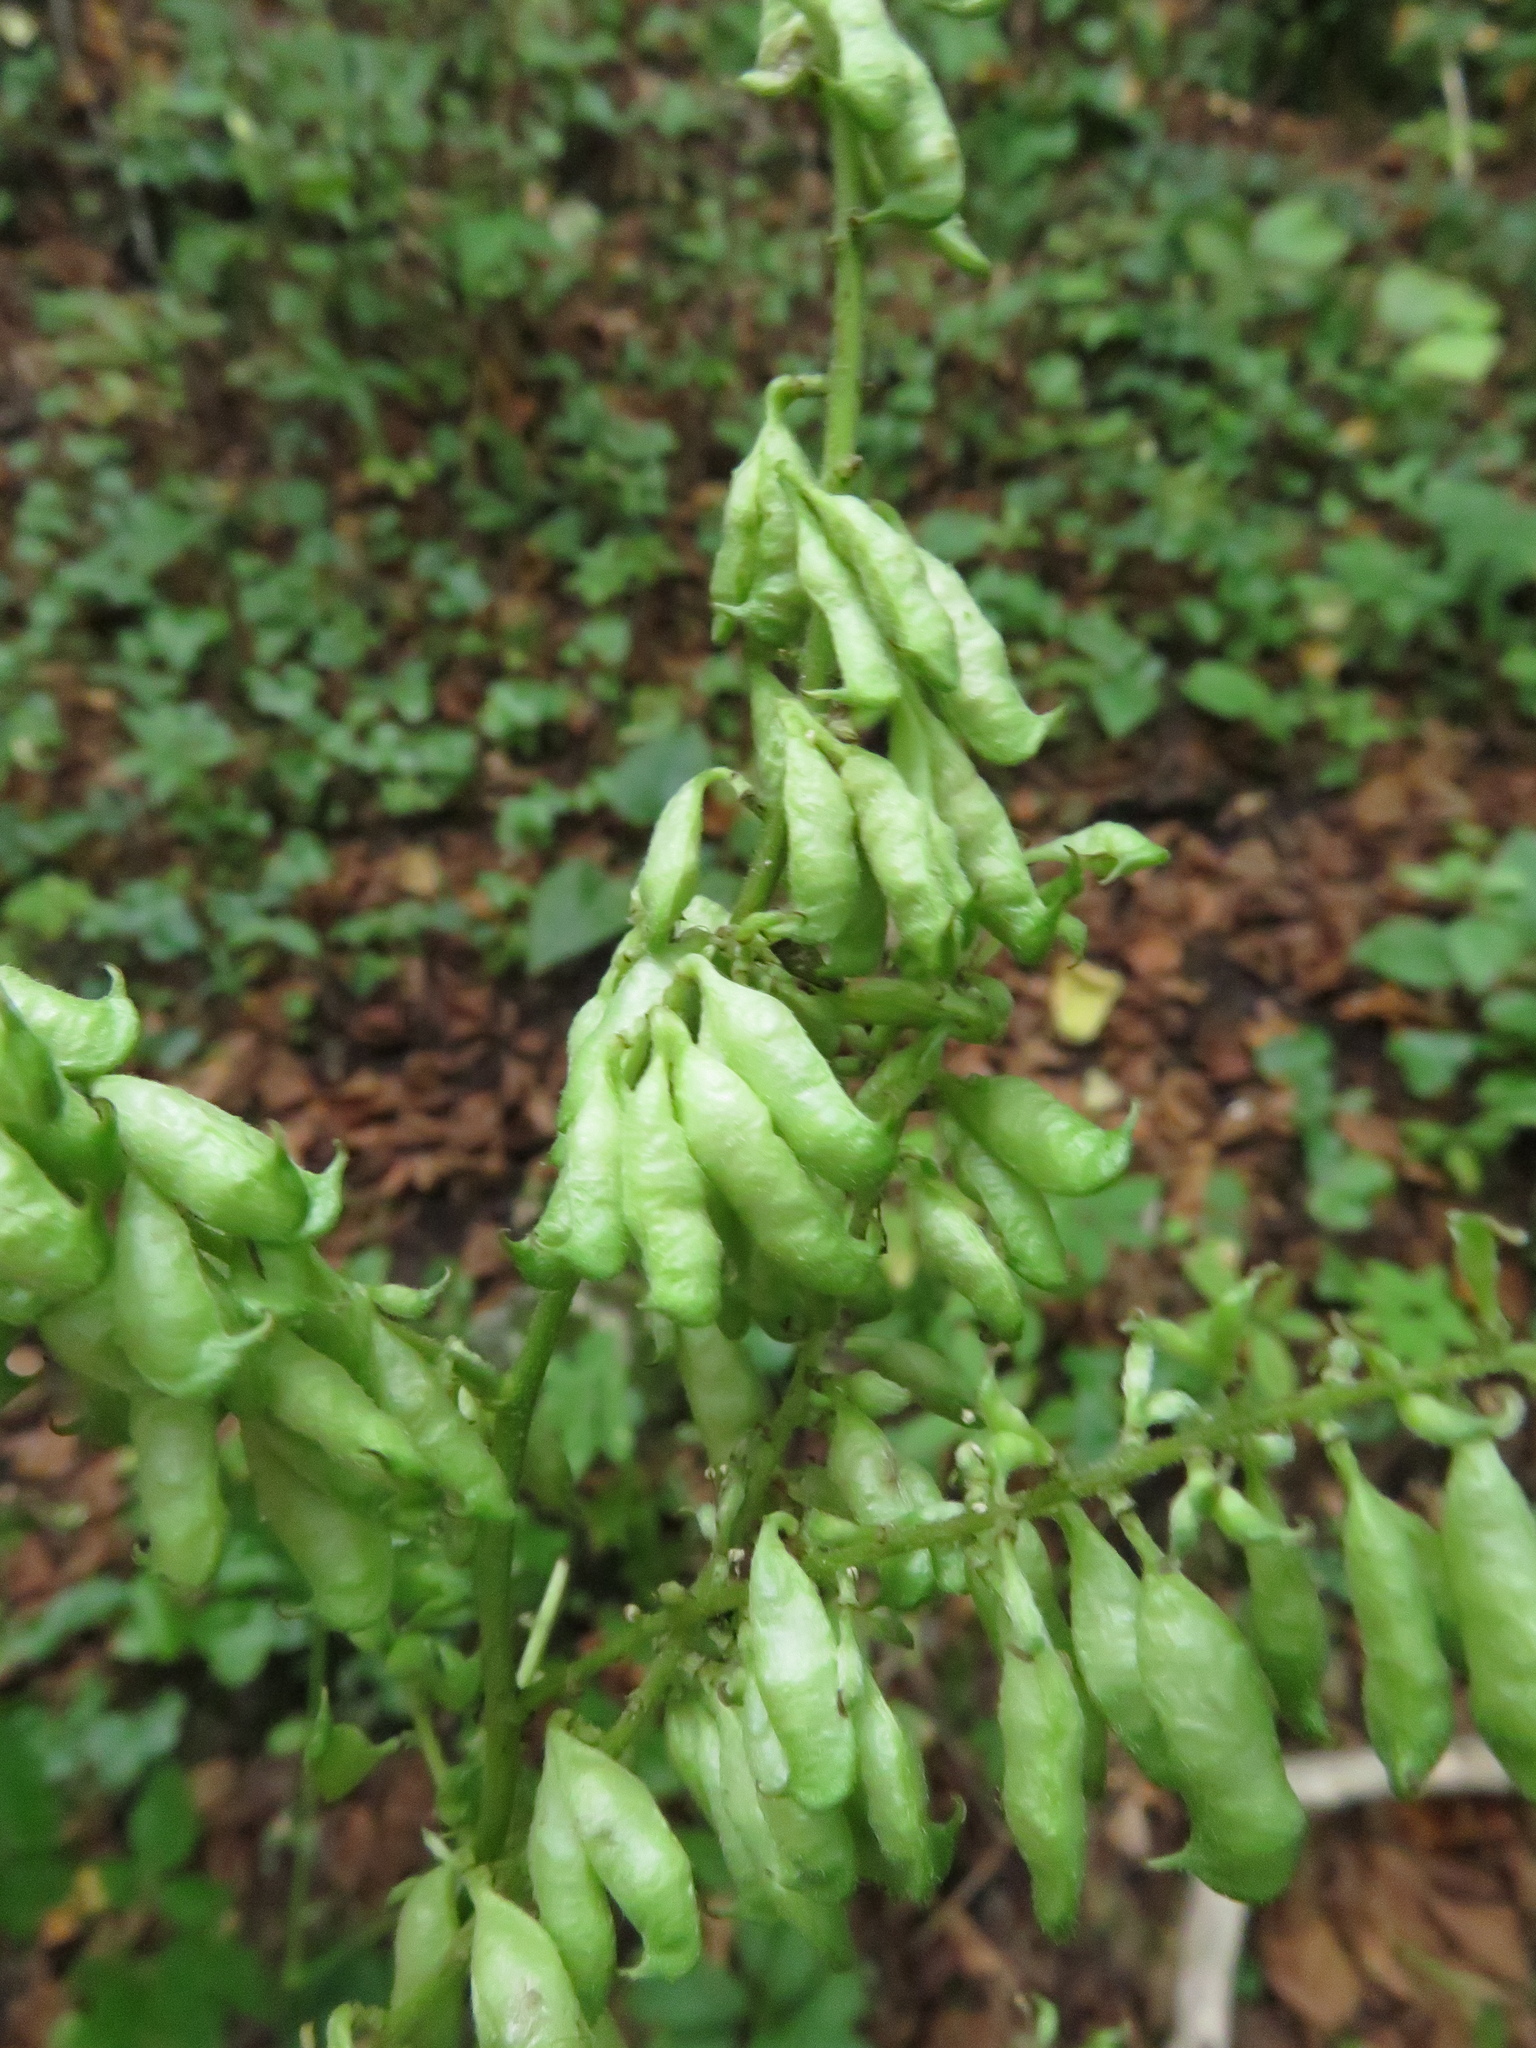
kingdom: Plantae
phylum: Tracheophyta
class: Magnoliopsida
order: Ranunculales
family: Ranunculaceae
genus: Actaea
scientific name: Actaea europaea
